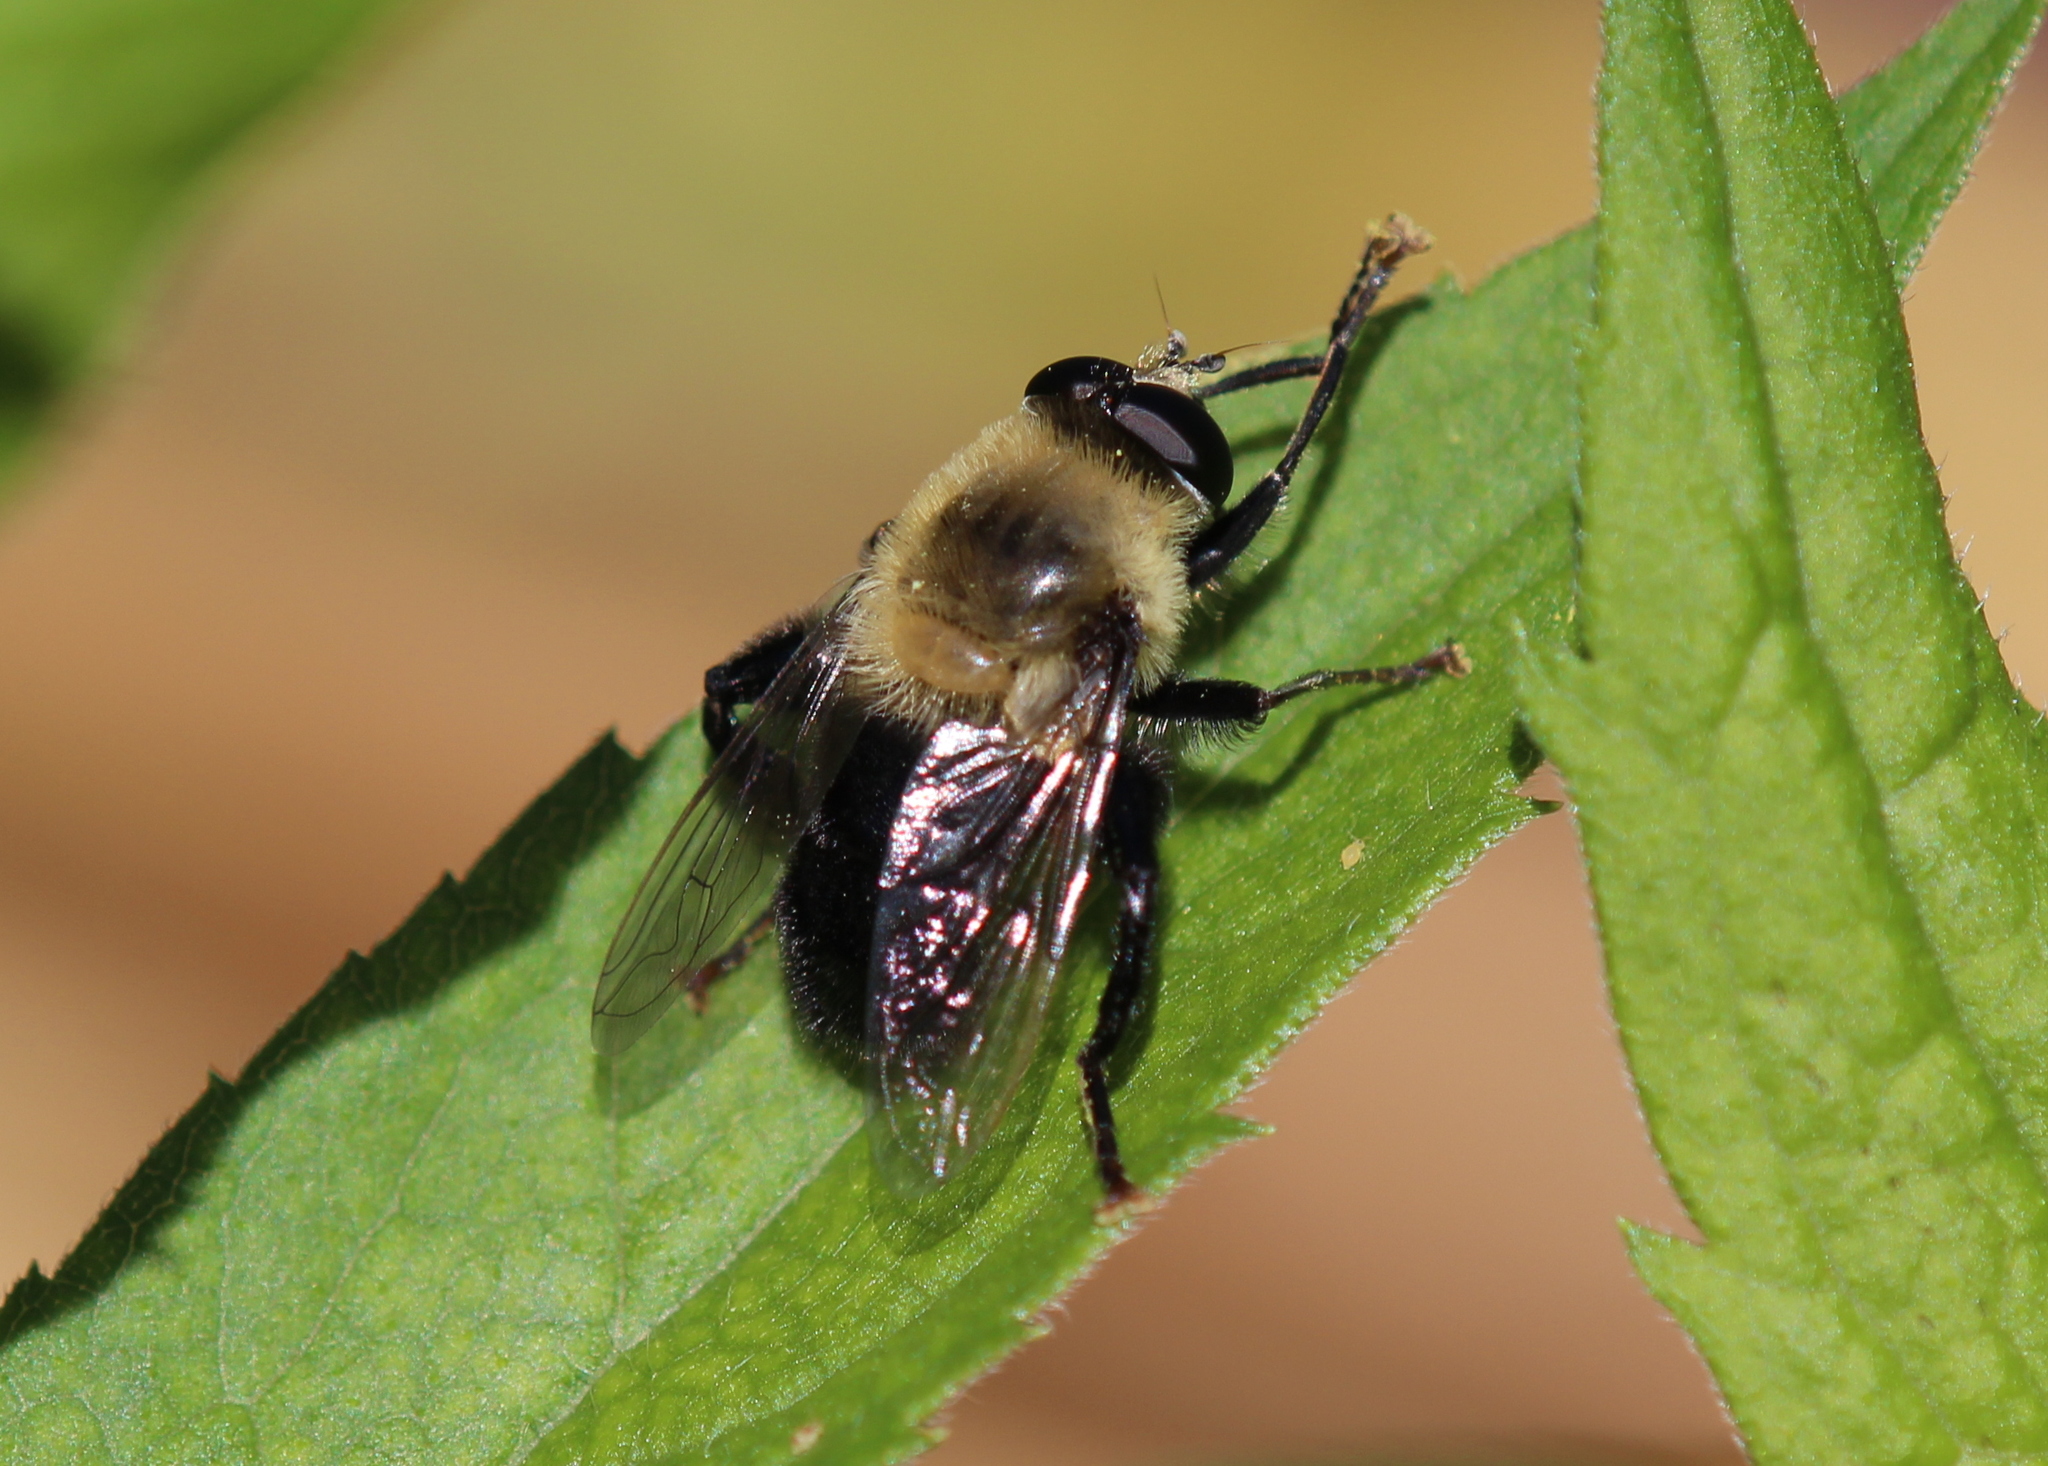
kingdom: Animalia
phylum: Arthropoda
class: Insecta
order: Diptera
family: Syrphidae
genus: Imatisma
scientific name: Imatisma bautias
